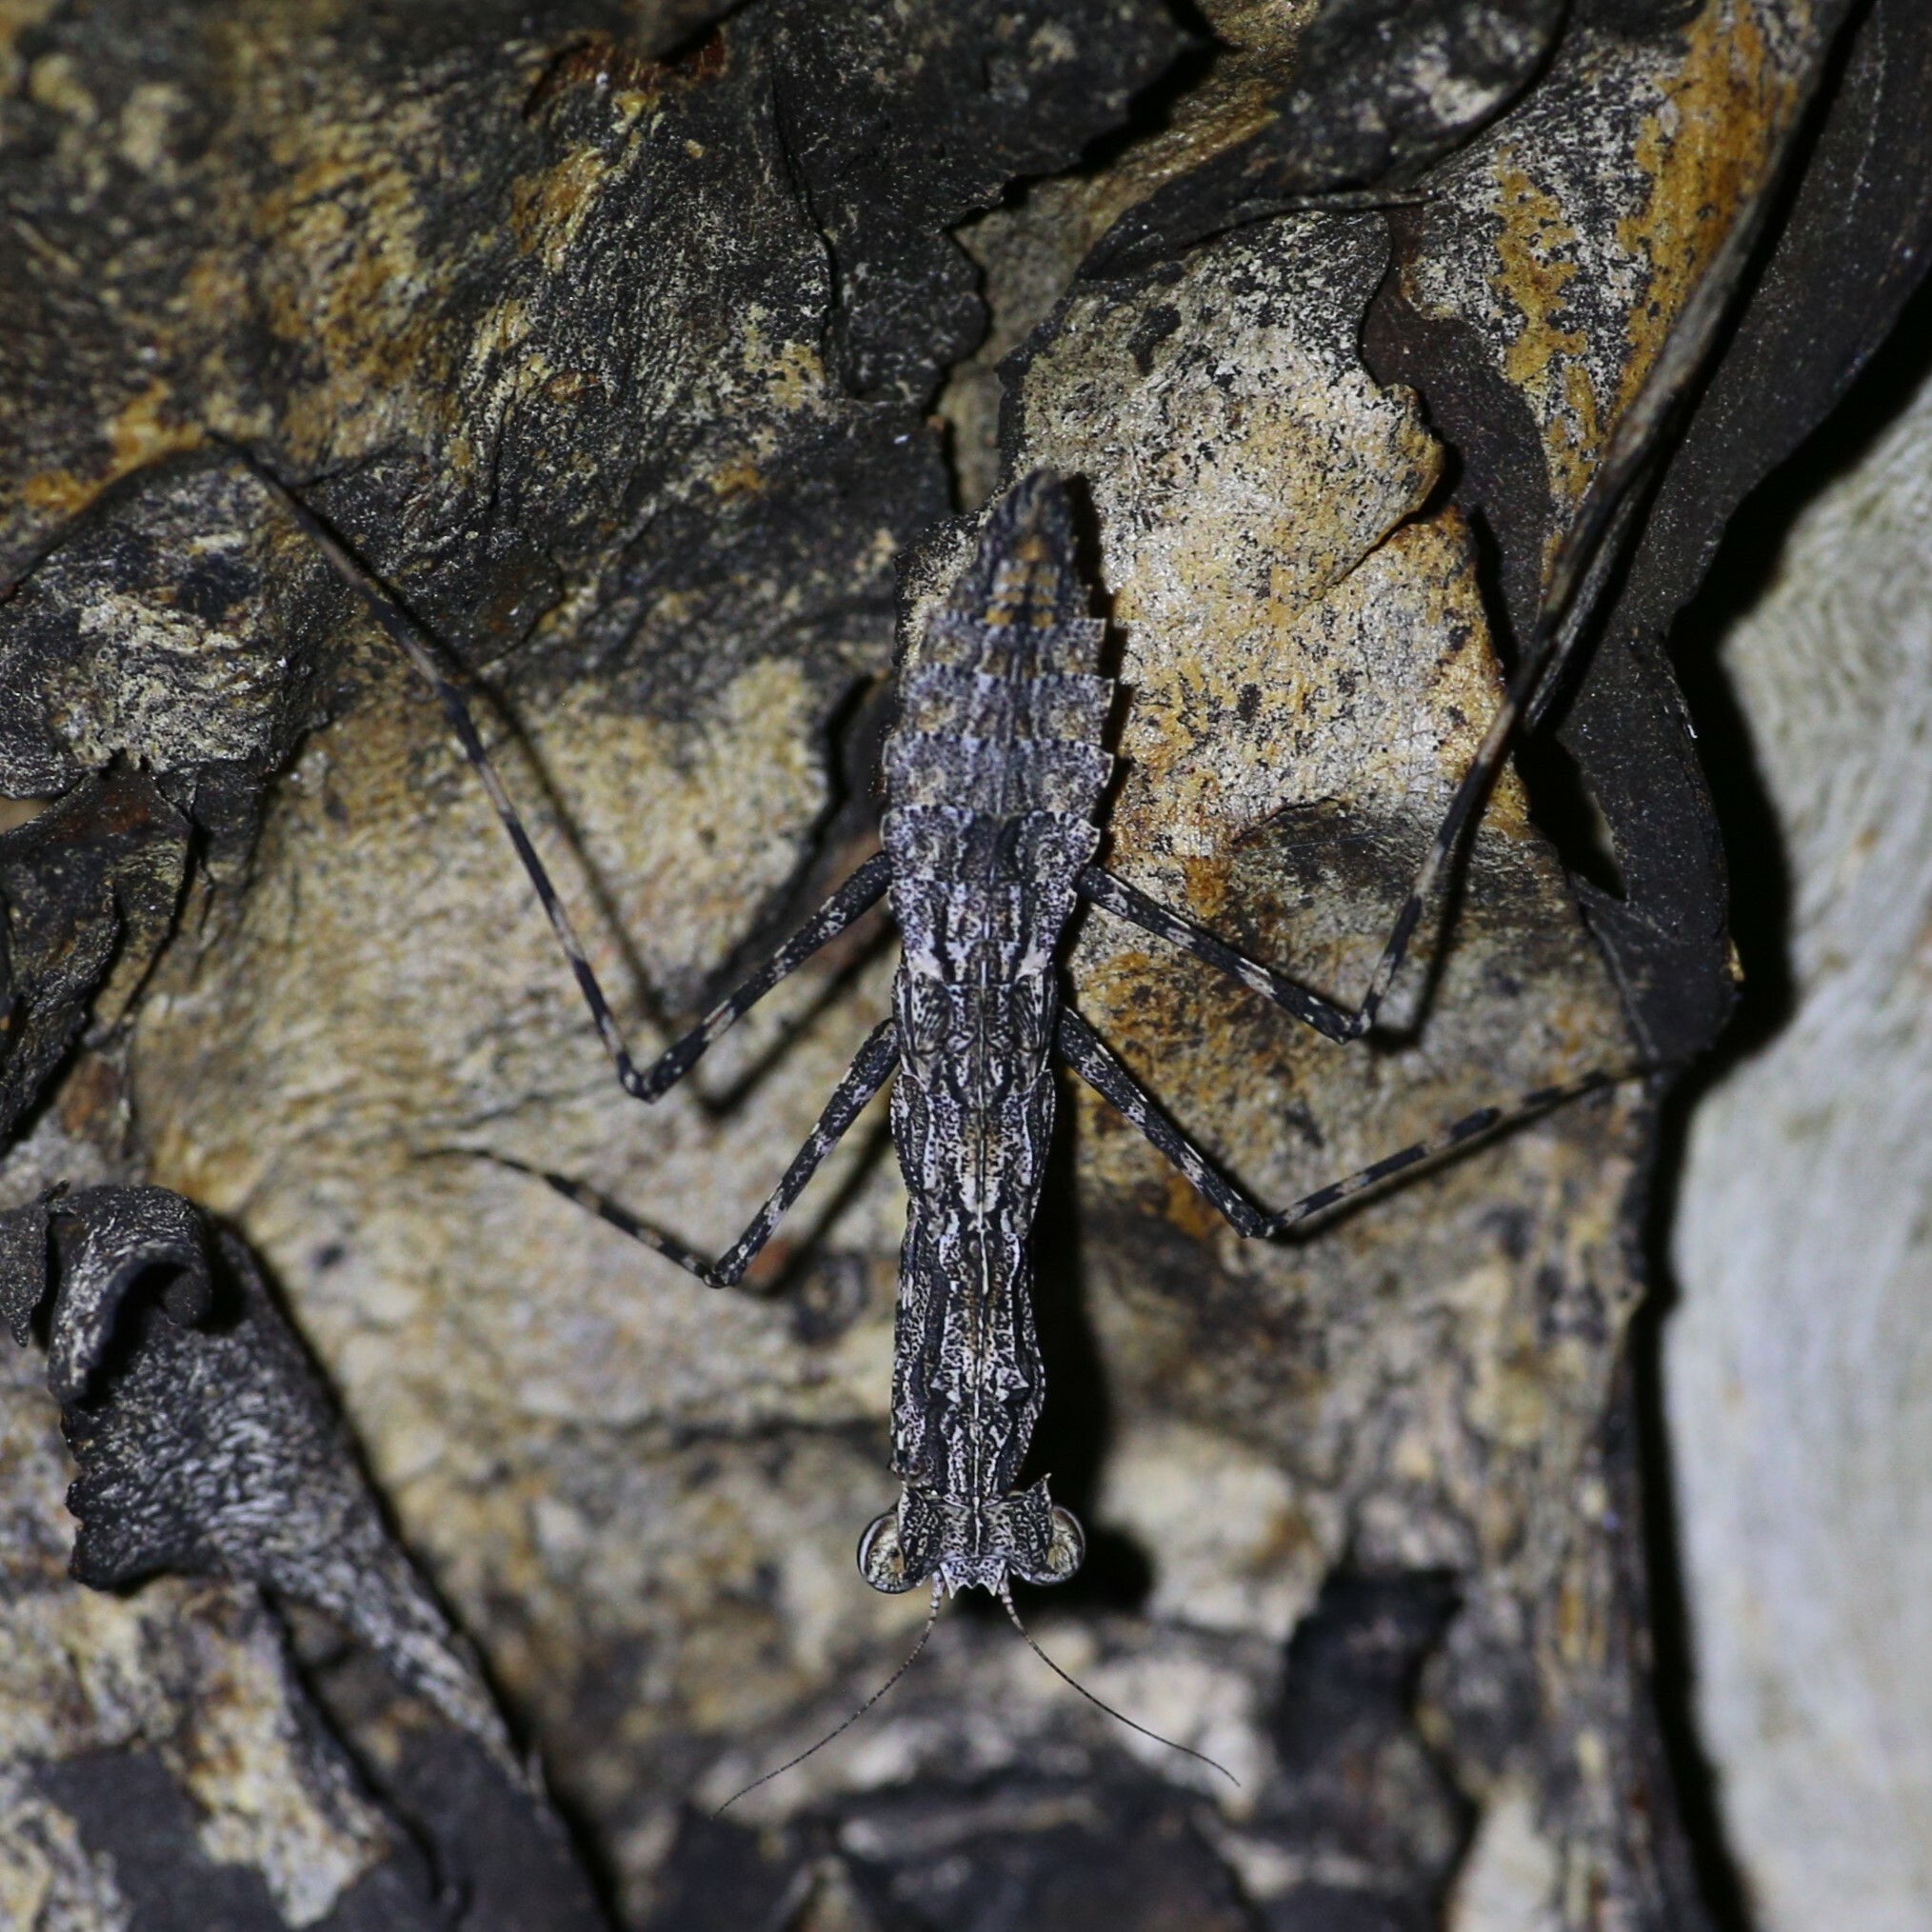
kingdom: Animalia
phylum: Arthropoda
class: Insecta
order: Mantodea
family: Nanomantidae
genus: Gyromantis
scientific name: Gyromantis kraussii
